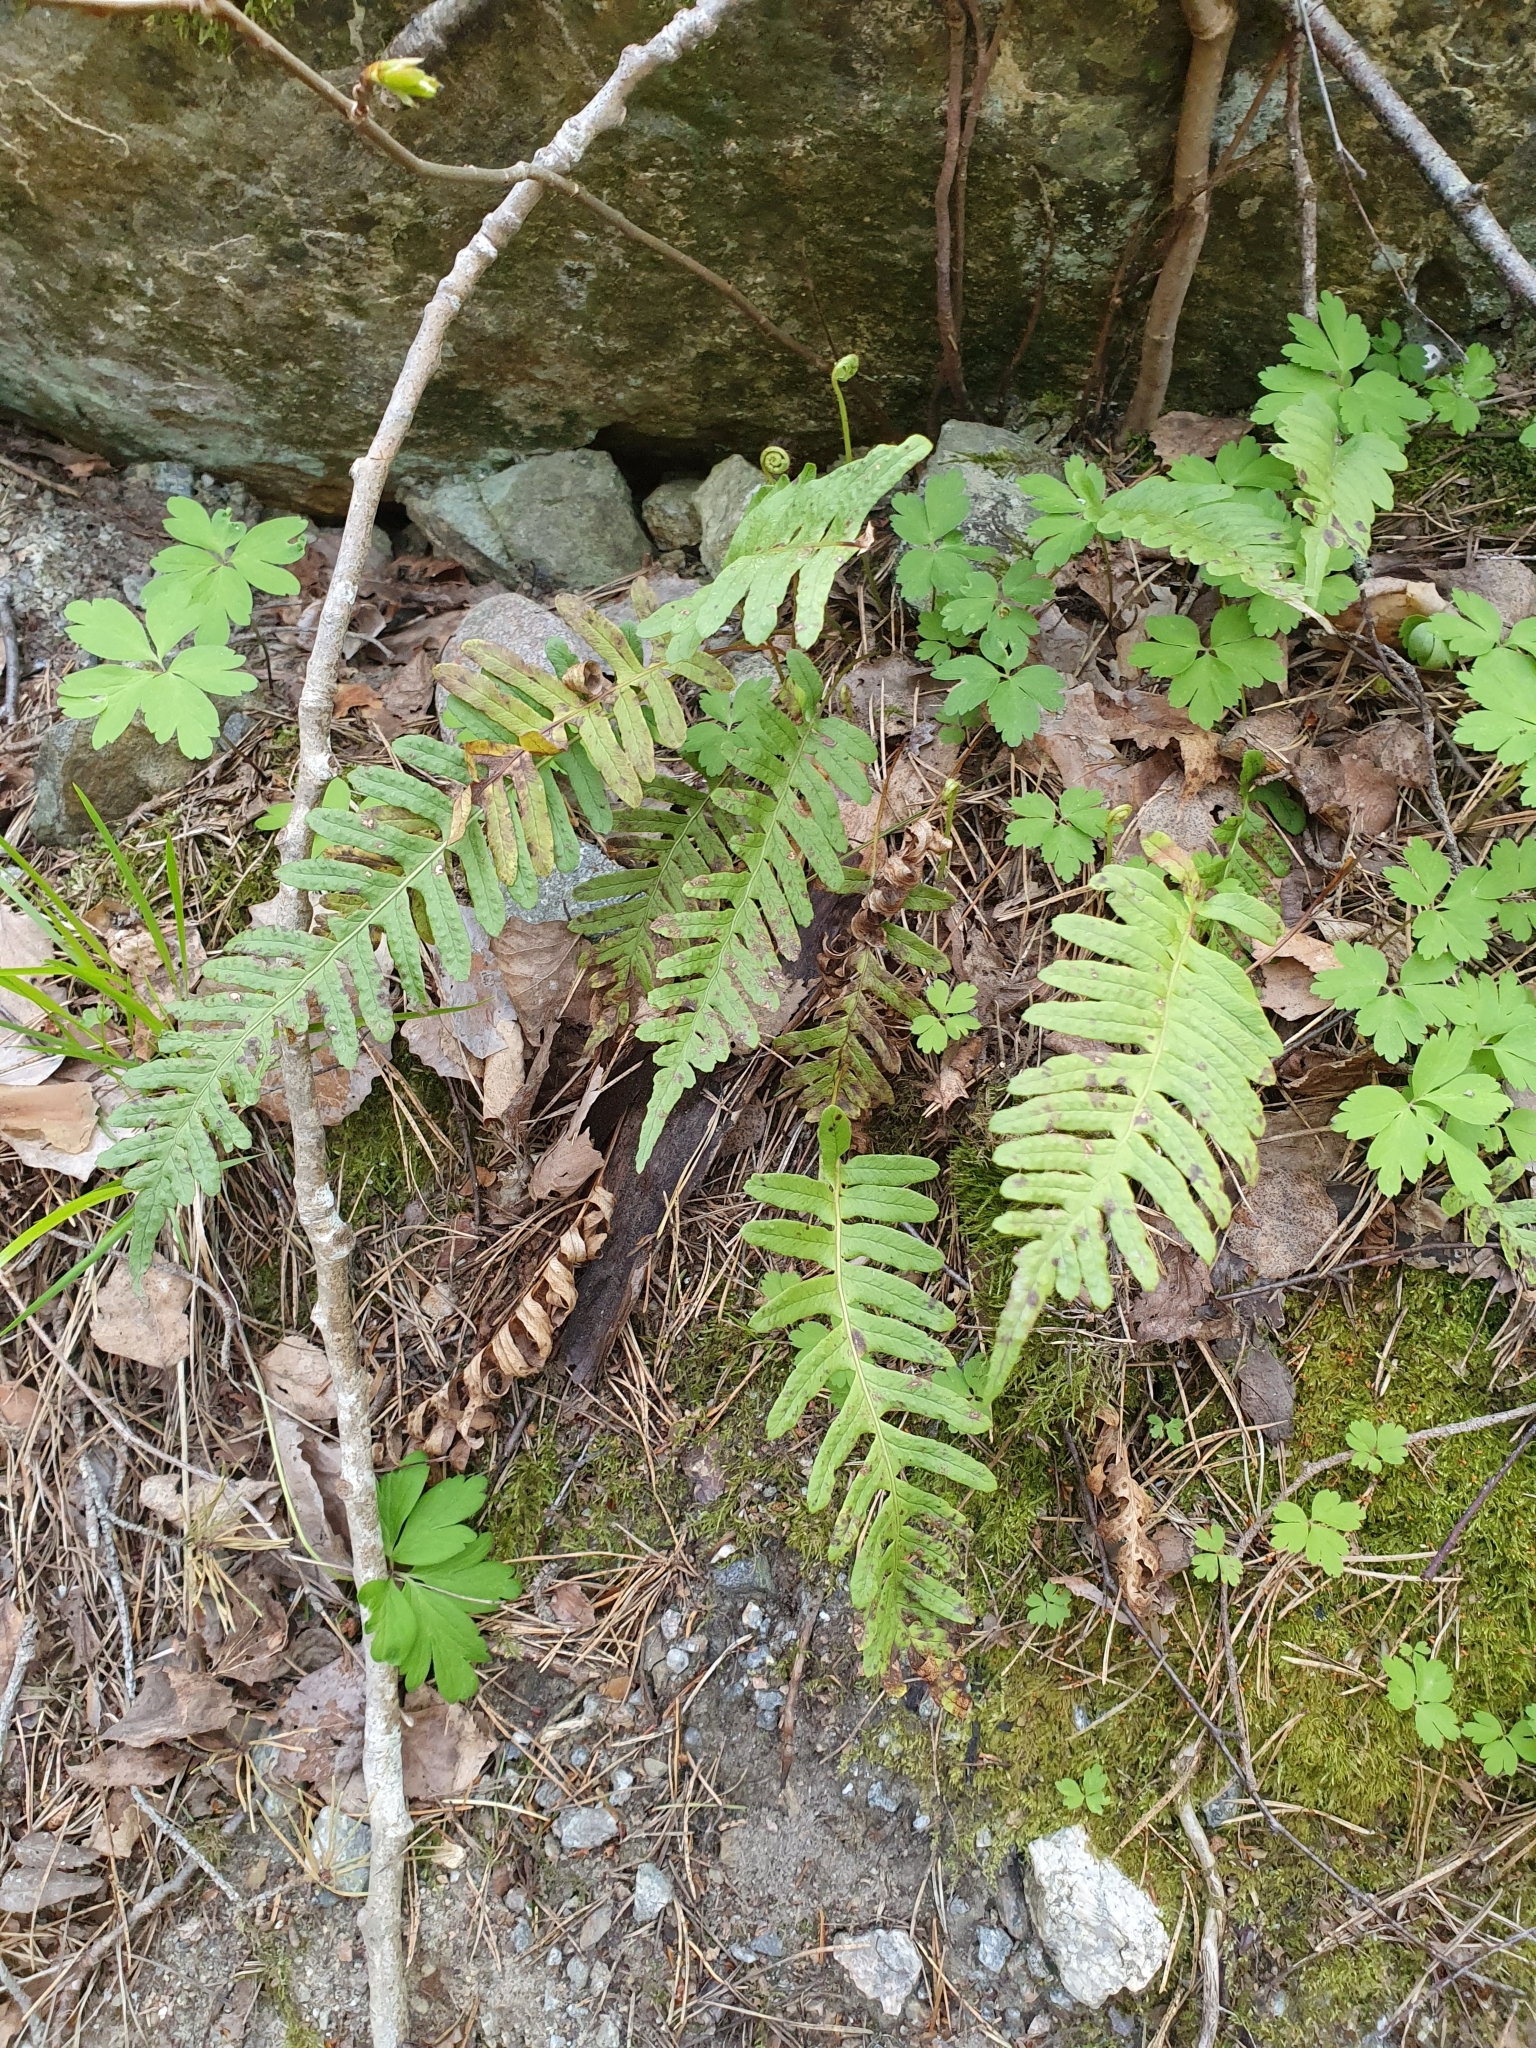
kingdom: Plantae
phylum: Tracheophyta
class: Polypodiopsida
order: Polypodiales
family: Polypodiaceae
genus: Polypodium
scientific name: Polypodium vulgare
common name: Common polypody
